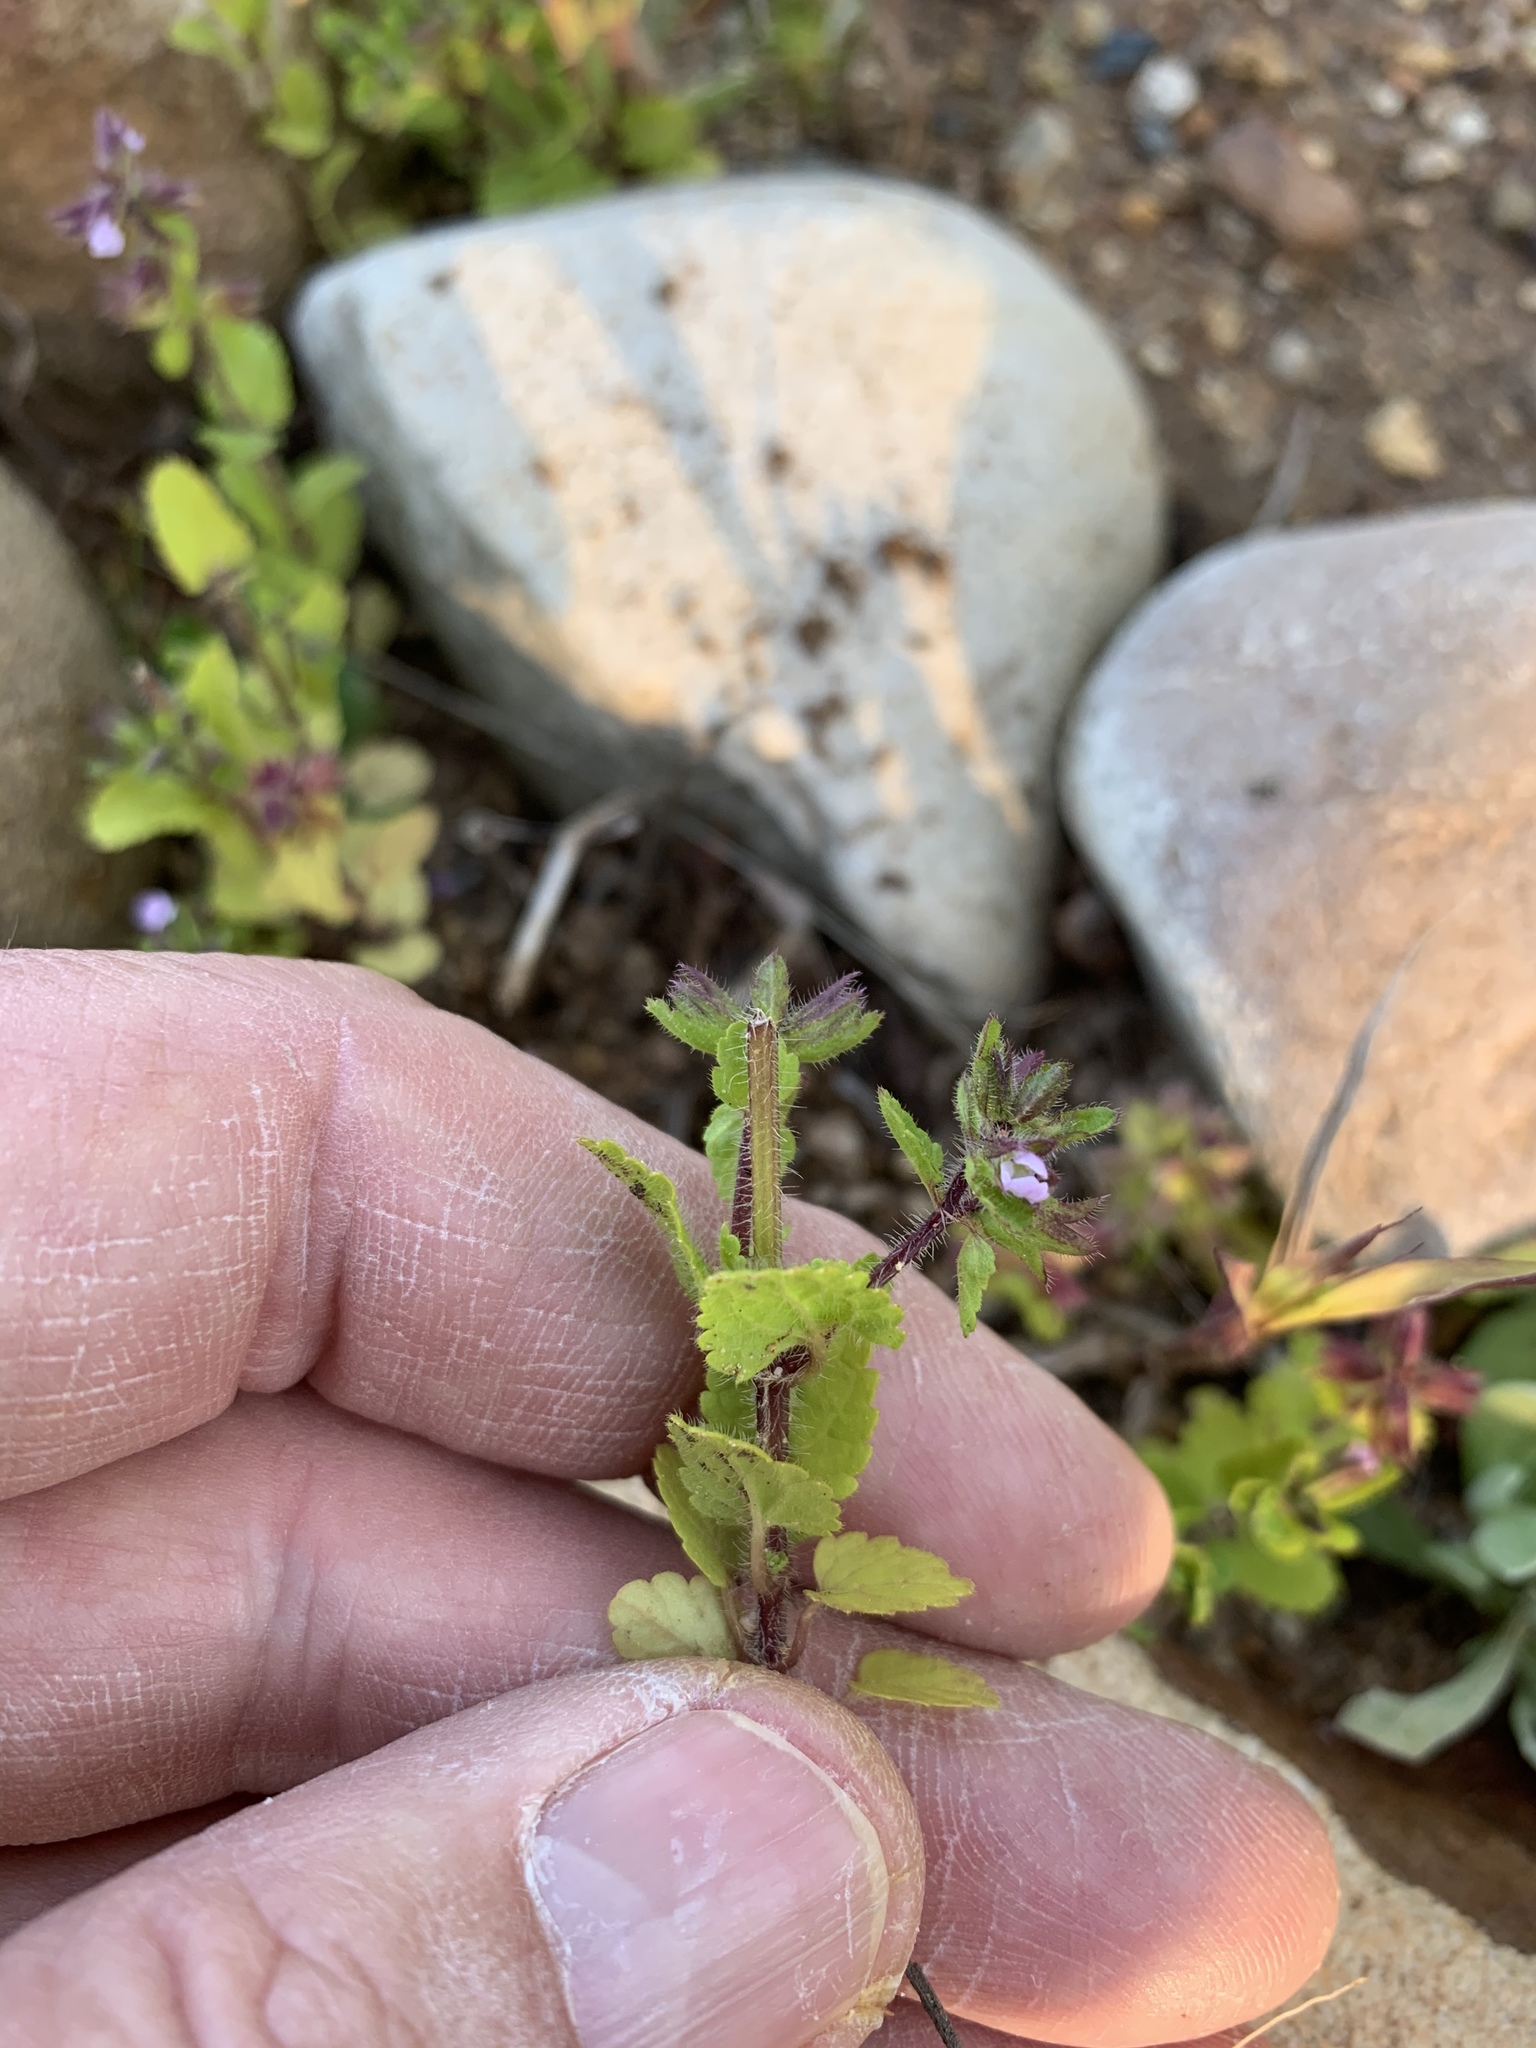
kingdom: Plantae
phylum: Tracheophyta
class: Magnoliopsida
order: Lamiales
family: Lamiaceae
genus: Stachys
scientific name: Stachys arvensis
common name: Field woundwort
